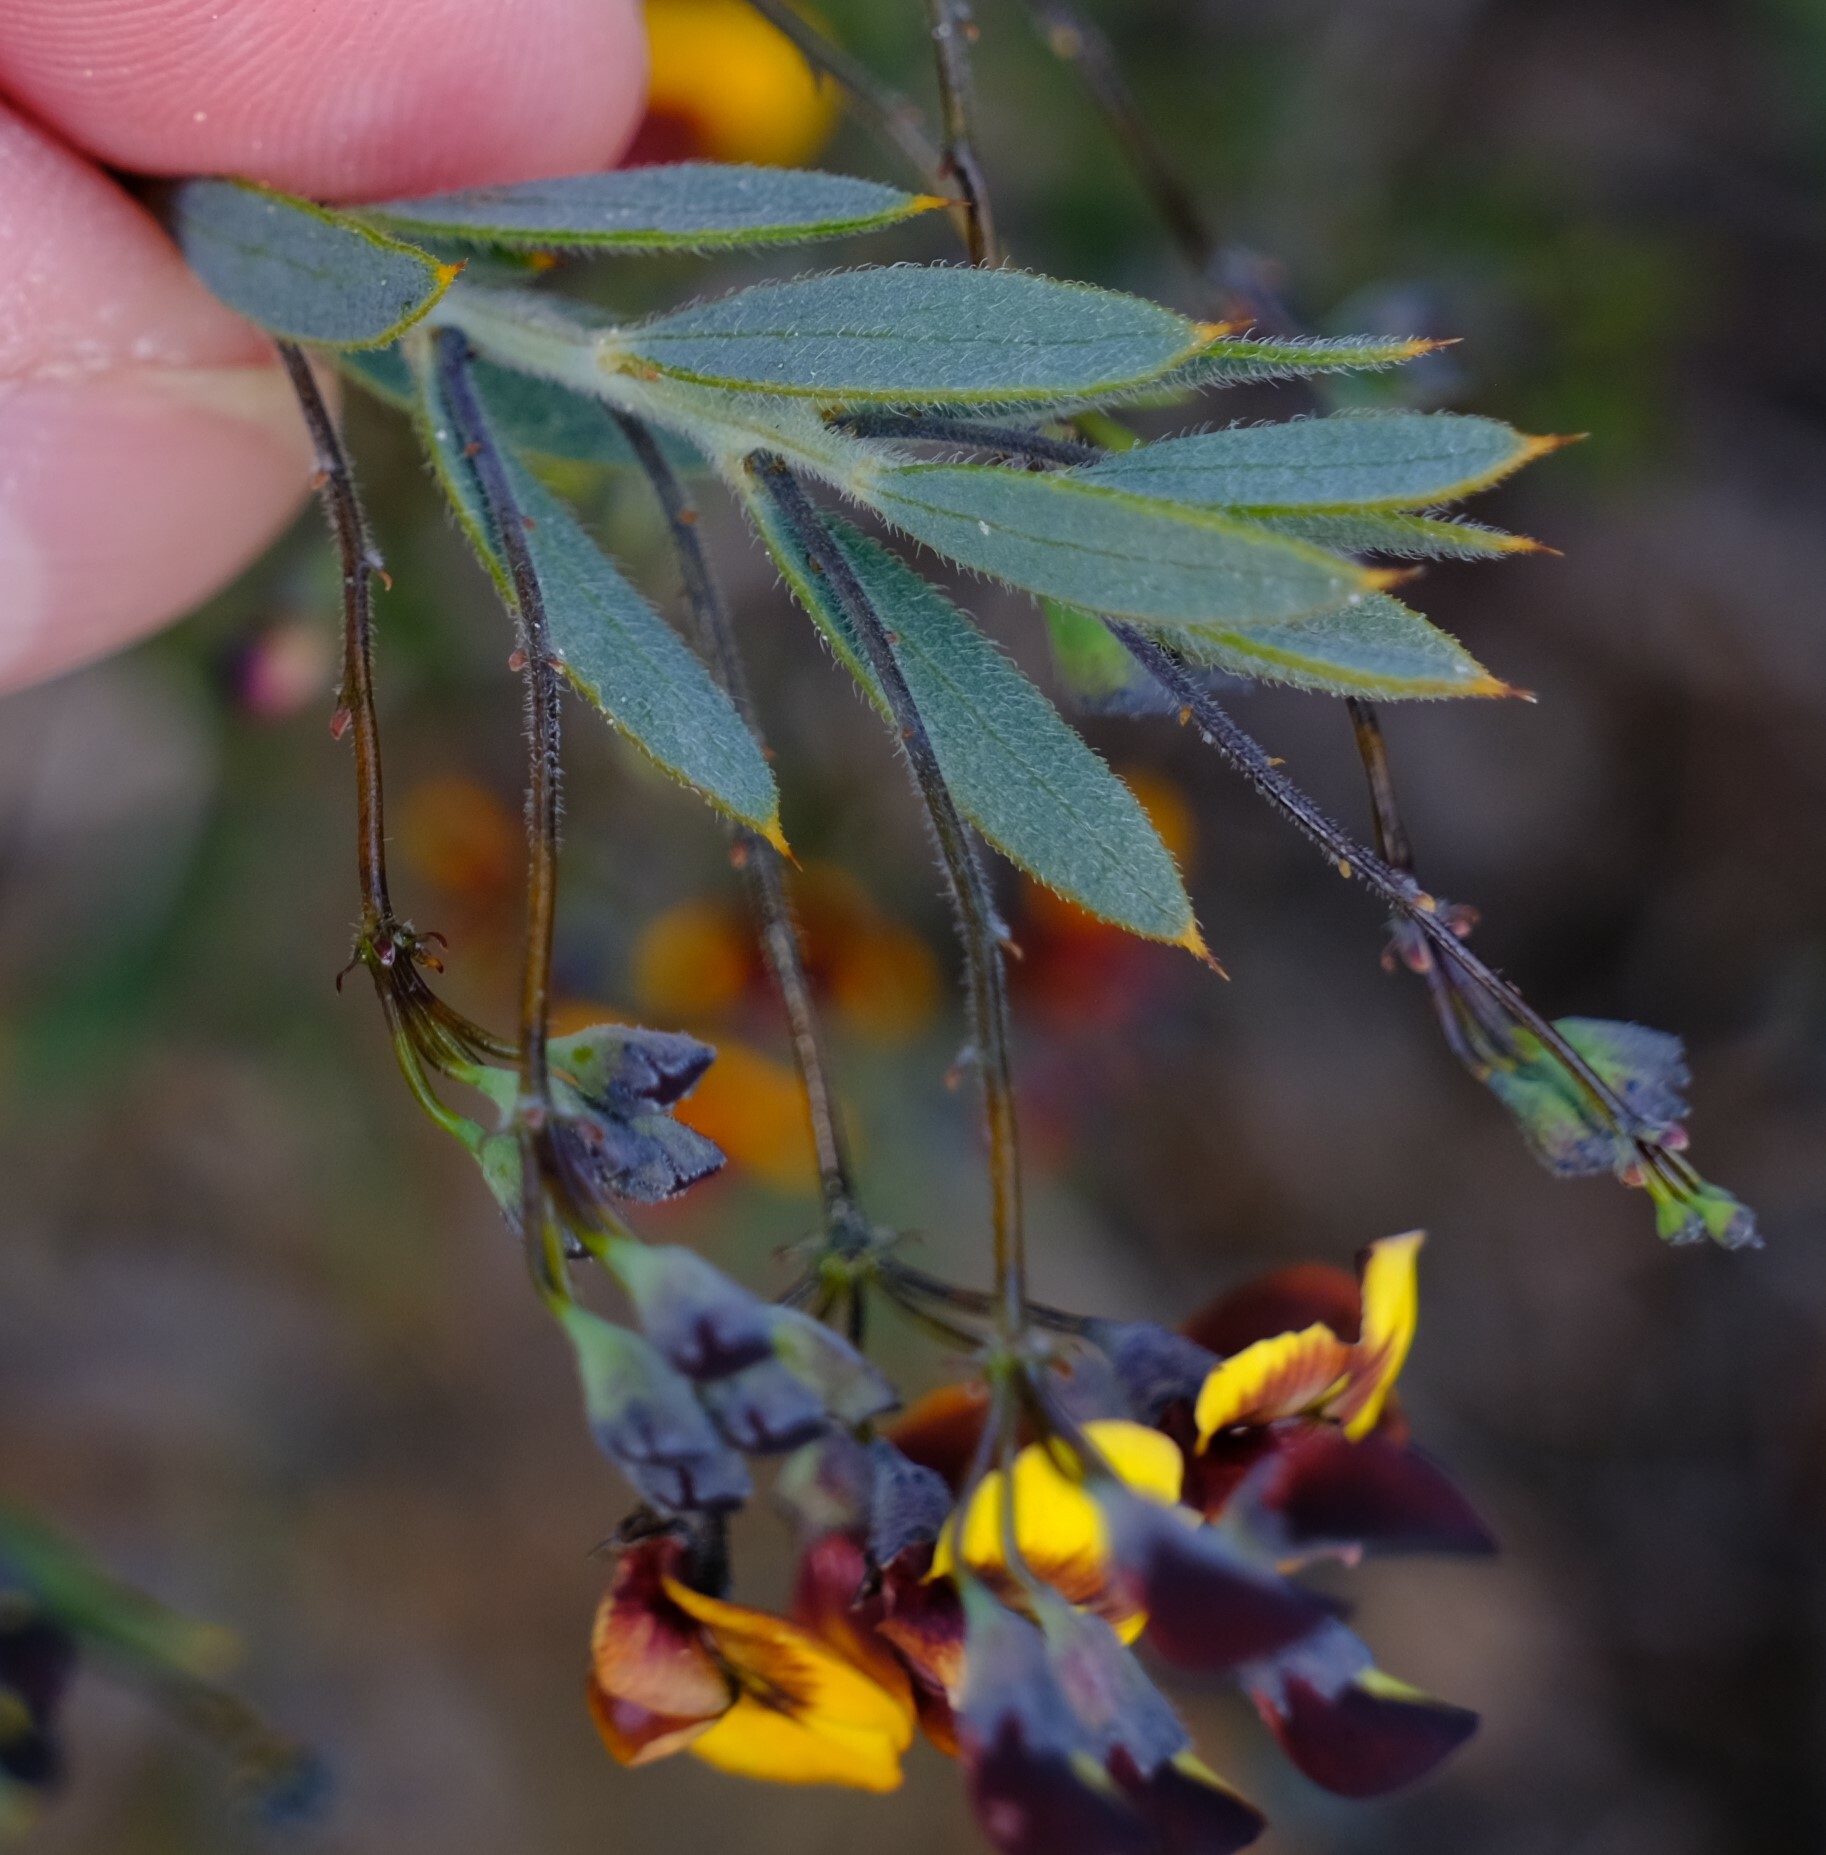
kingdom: Plantae
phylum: Tracheophyta
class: Magnoliopsida
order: Fabales
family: Fabaceae
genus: Daviesia
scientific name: Daviesia pedunculata
